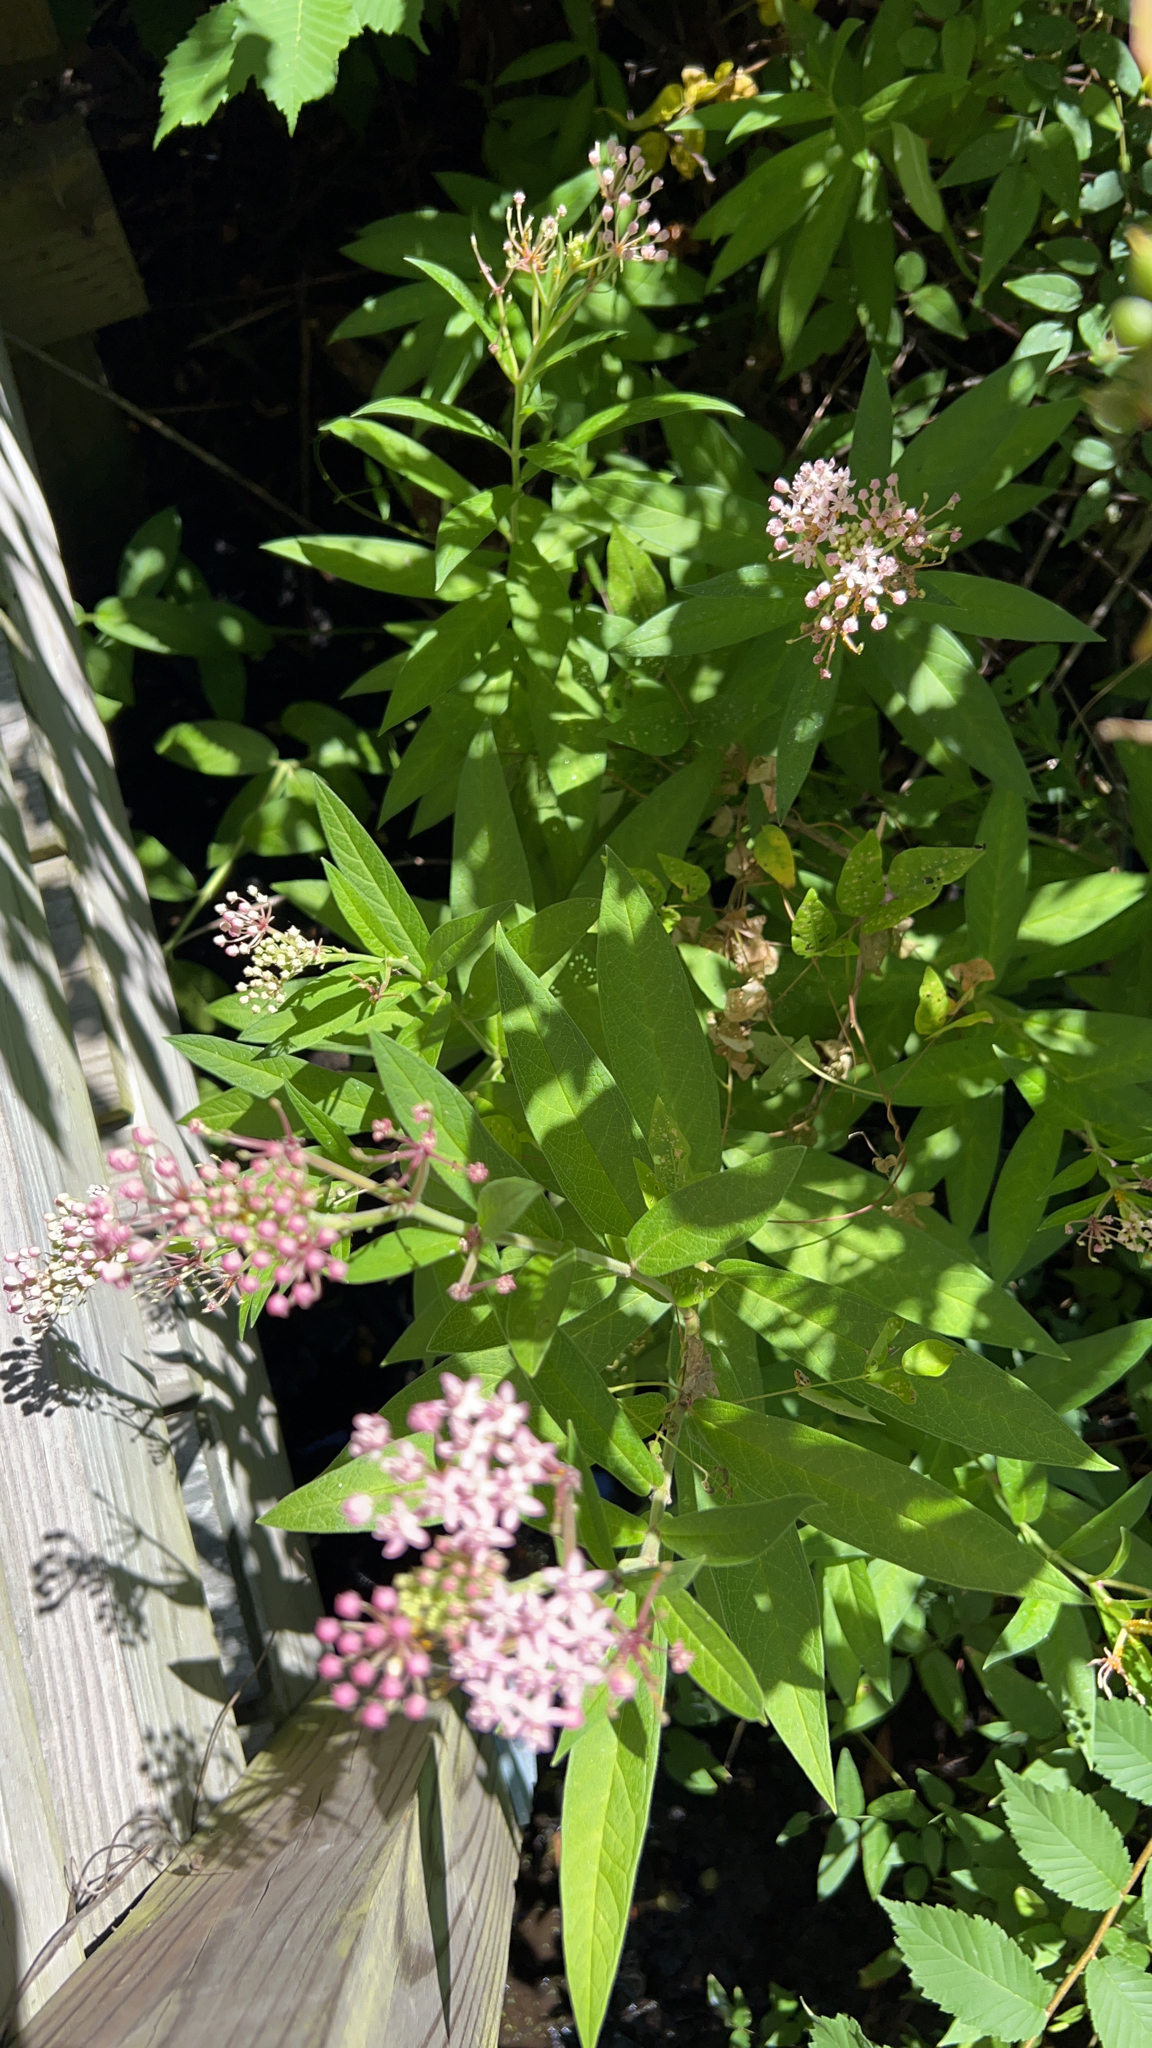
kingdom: Plantae
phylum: Tracheophyta
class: Magnoliopsida
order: Gentianales
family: Apocynaceae
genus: Asclepias
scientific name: Asclepias incarnata
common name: Swamp milkweed
